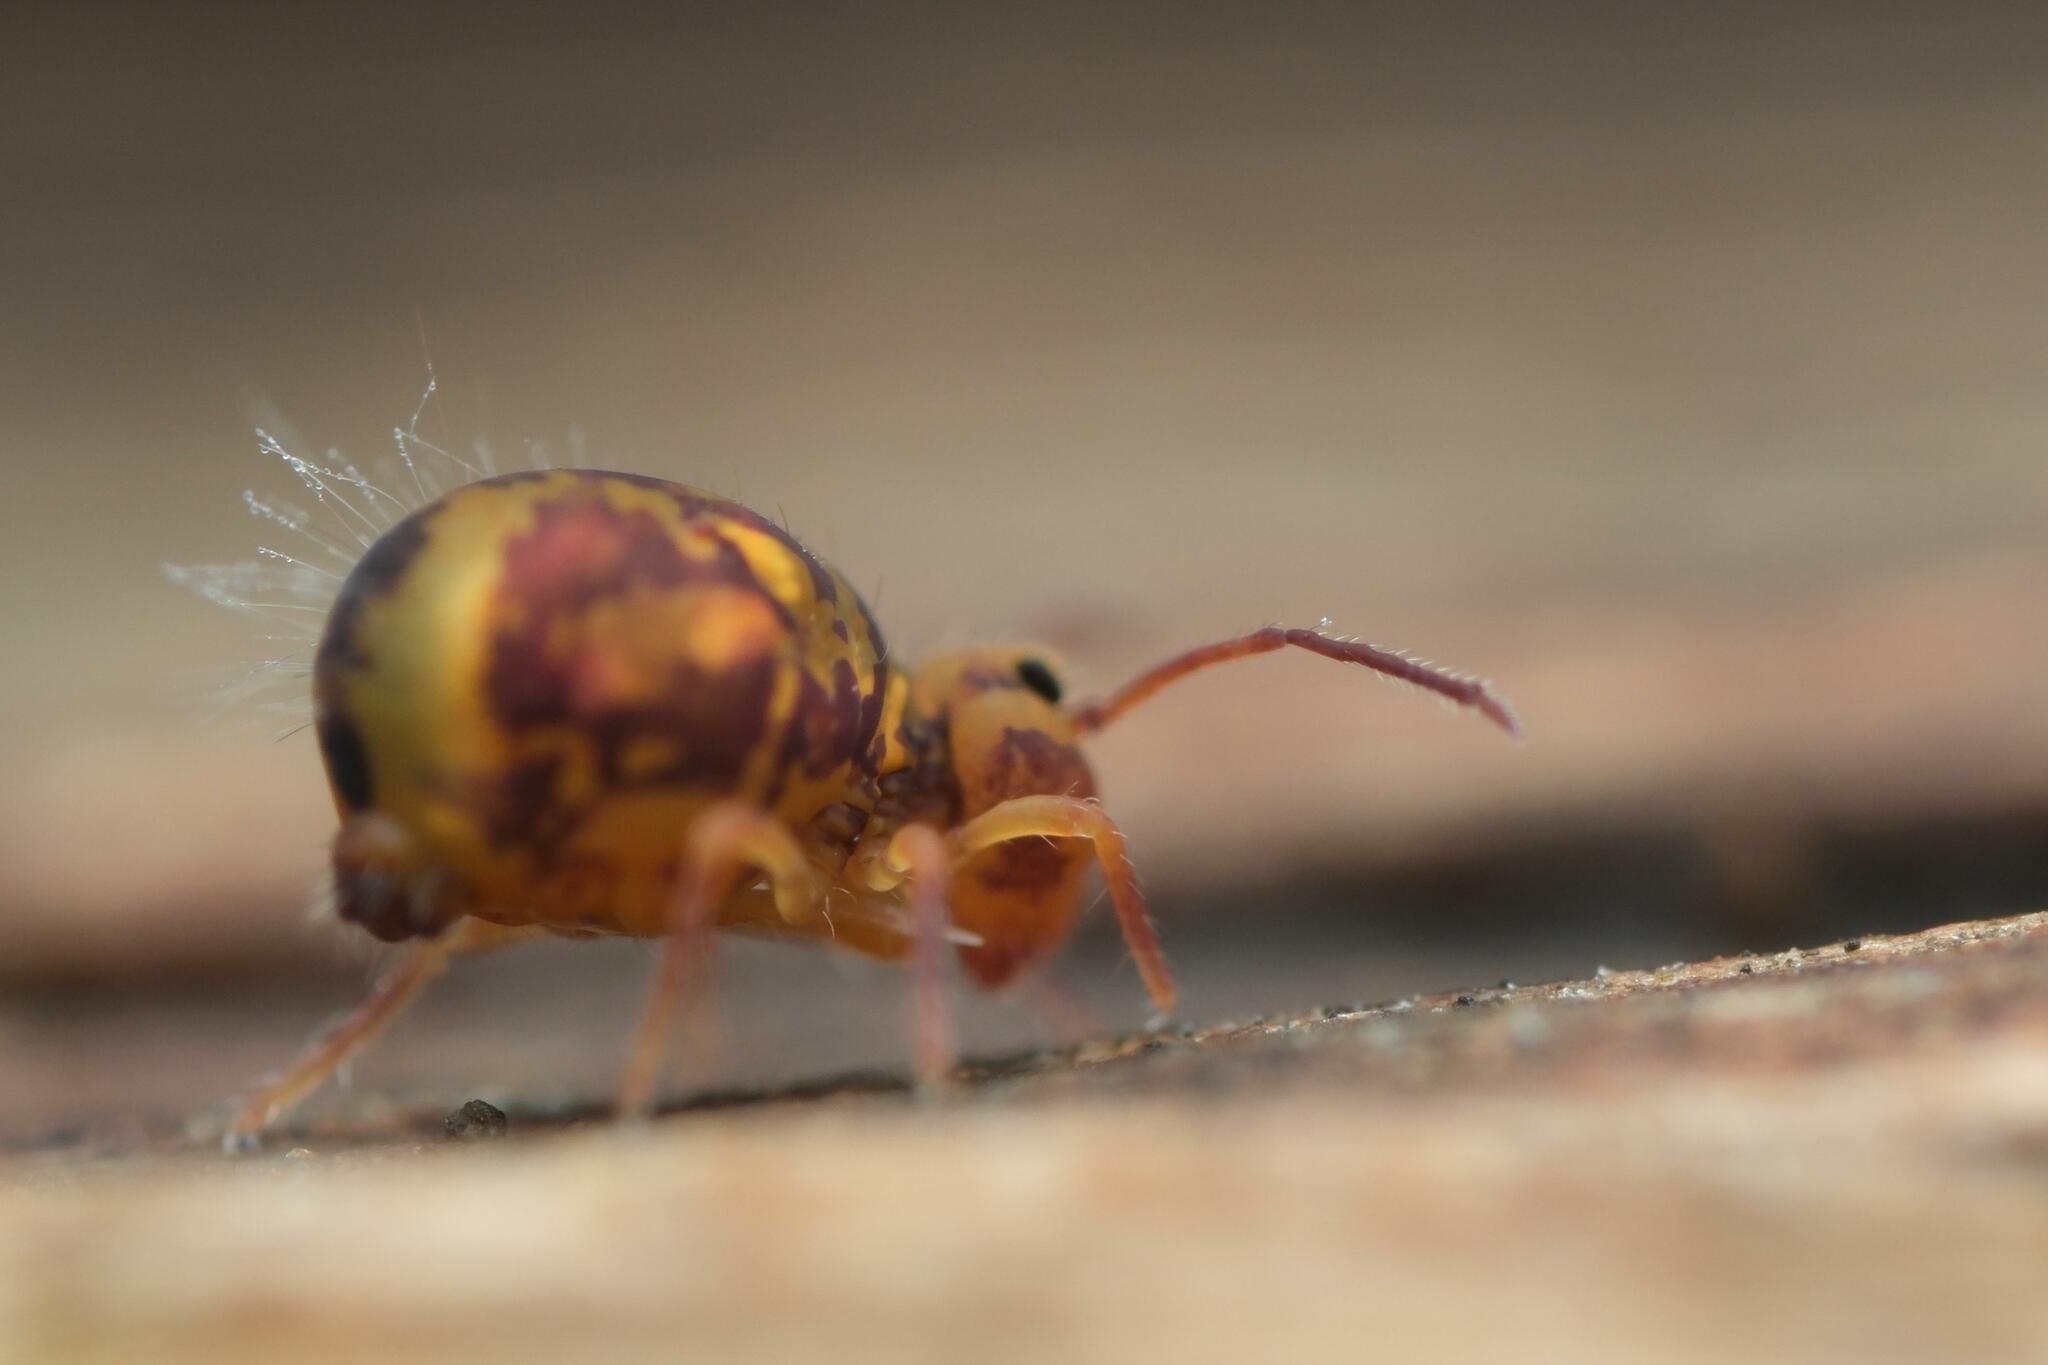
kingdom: Animalia
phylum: Arthropoda
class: Collembola
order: Symphypleona
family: Dicyrtomidae
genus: Dicyrtomina
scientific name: Dicyrtomina ornata
